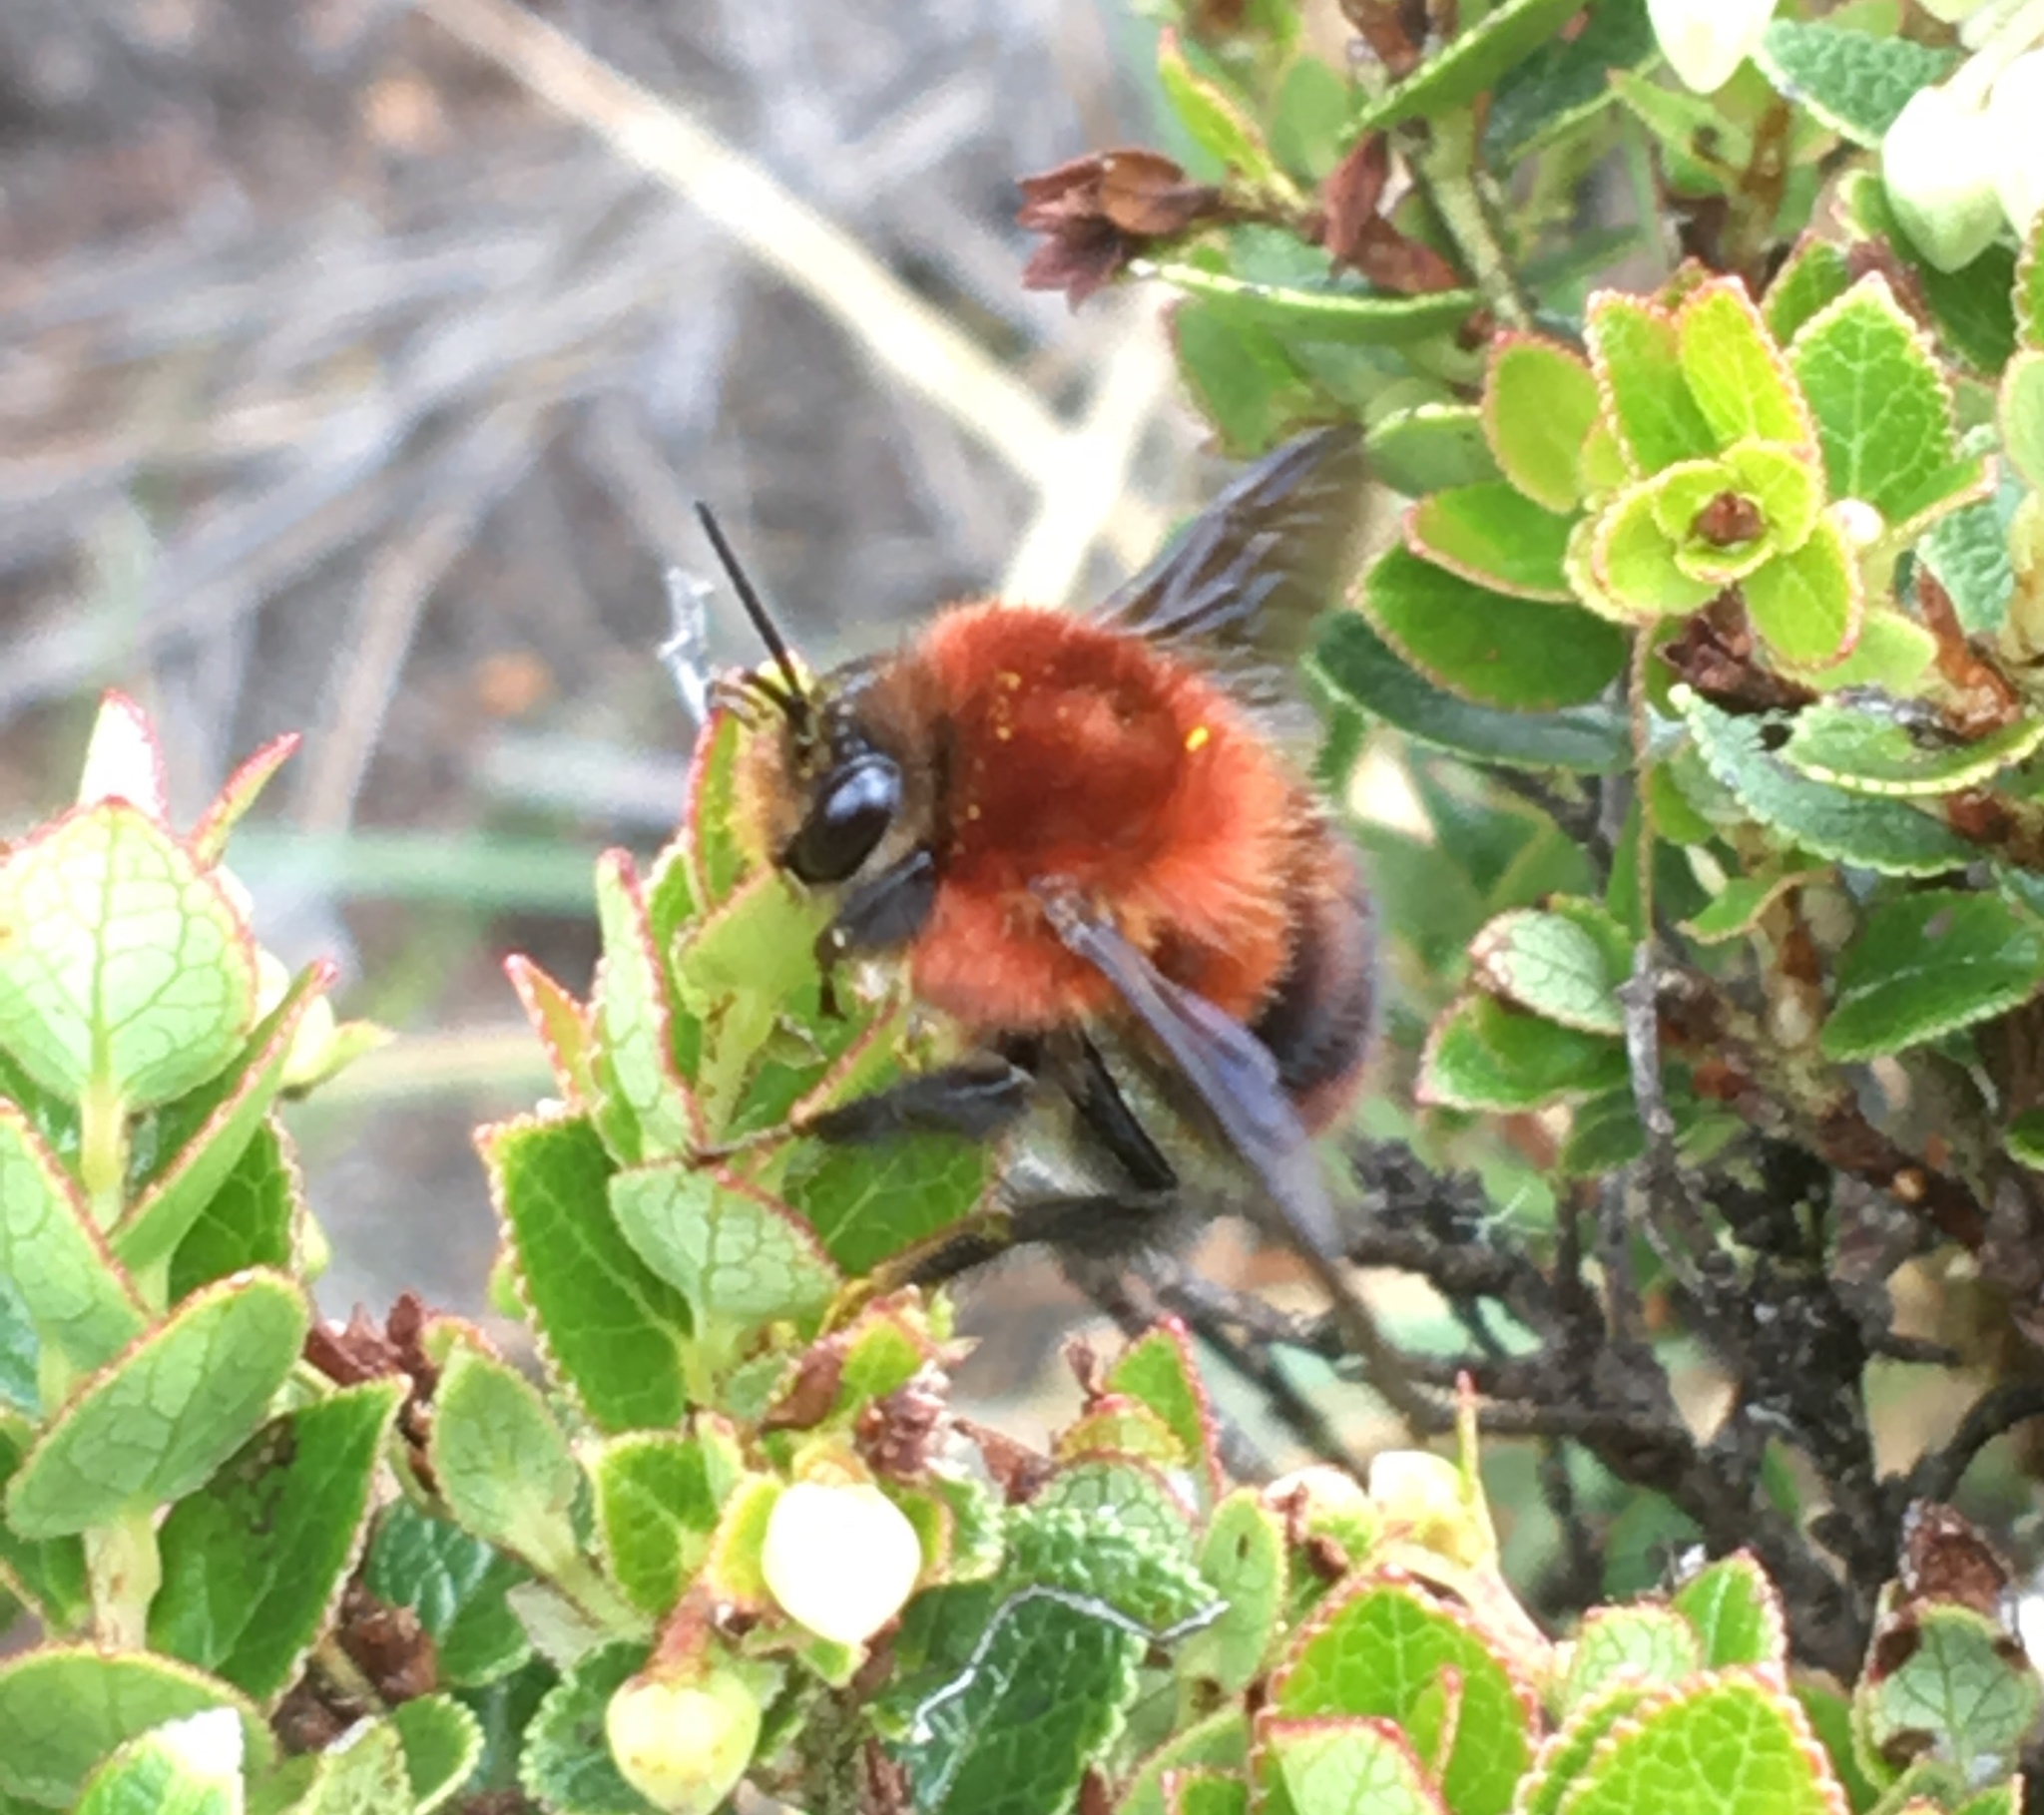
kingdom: Animalia
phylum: Arthropoda
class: Insecta
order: Hymenoptera
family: Apidae
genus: Bombus
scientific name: Bombus rubicundus
